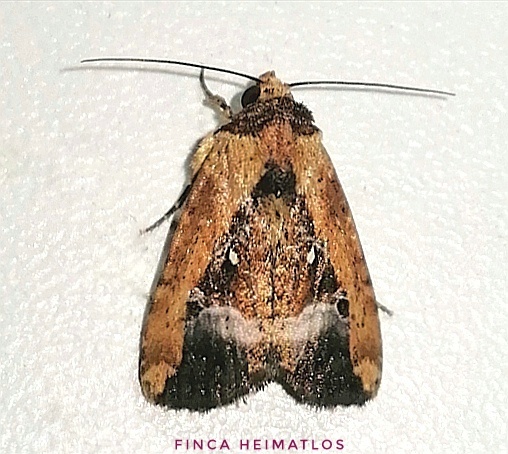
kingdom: Animalia
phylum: Arthropoda
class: Insecta
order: Lepidoptera
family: Noctuidae
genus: Elaphria
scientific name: Elaphria subobliqua
